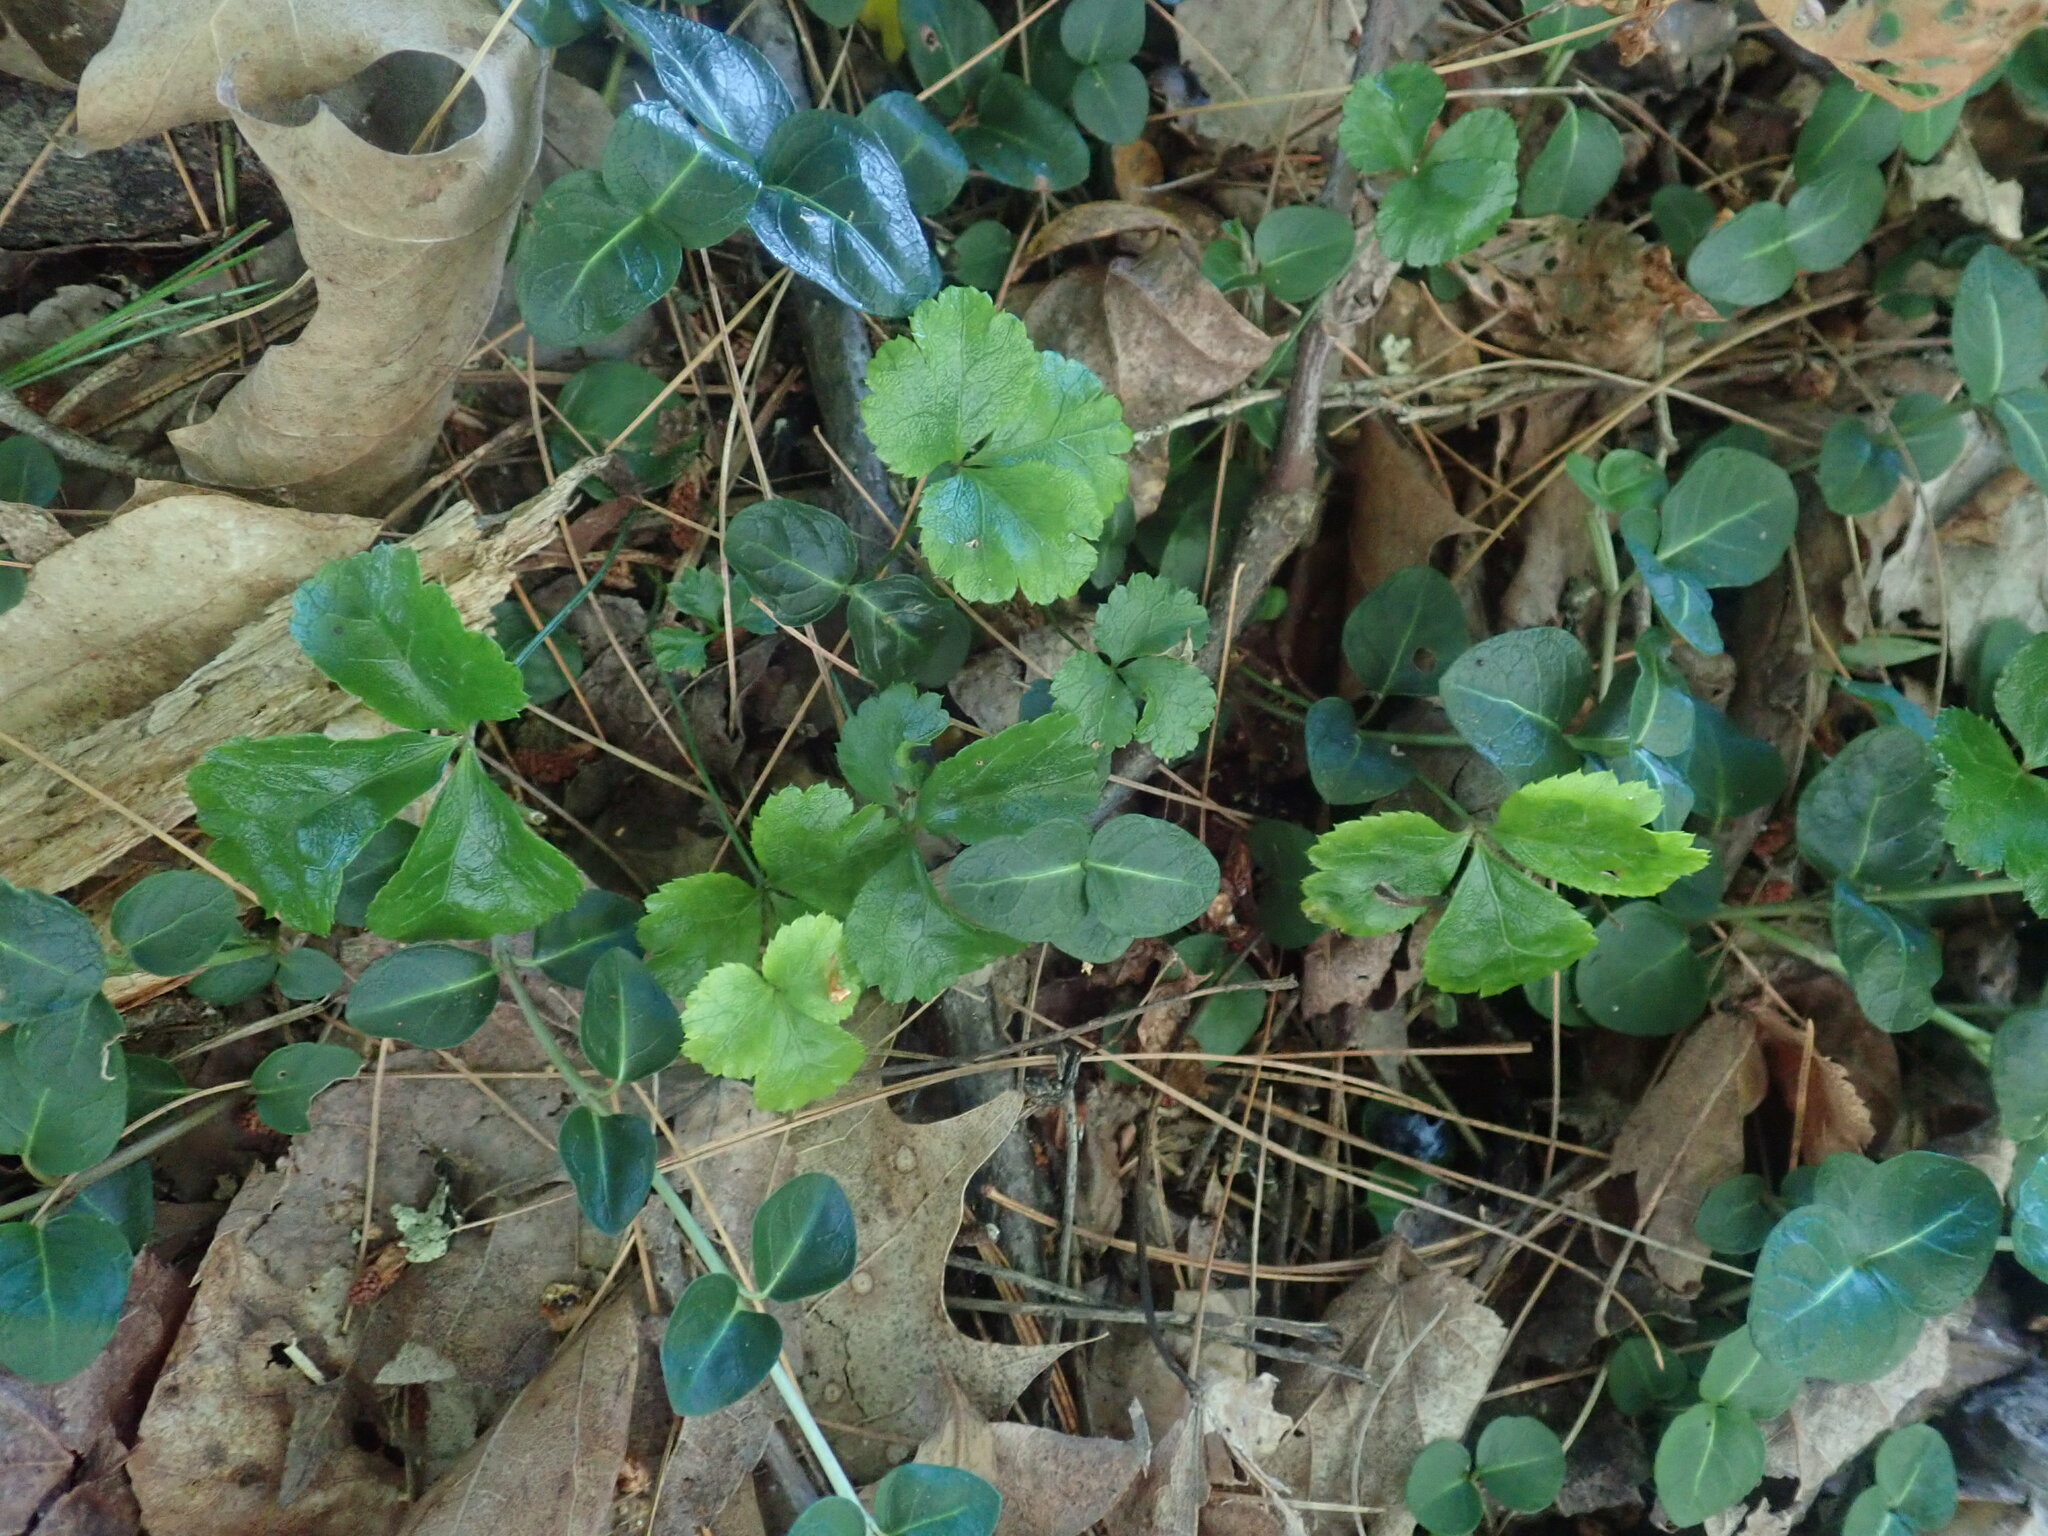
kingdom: Plantae
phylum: Tracheophyta
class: Magnoliopsida
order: Ranunculales
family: Ranunculaceae
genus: Coptis
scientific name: Coptis trifolia
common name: Canker-root
